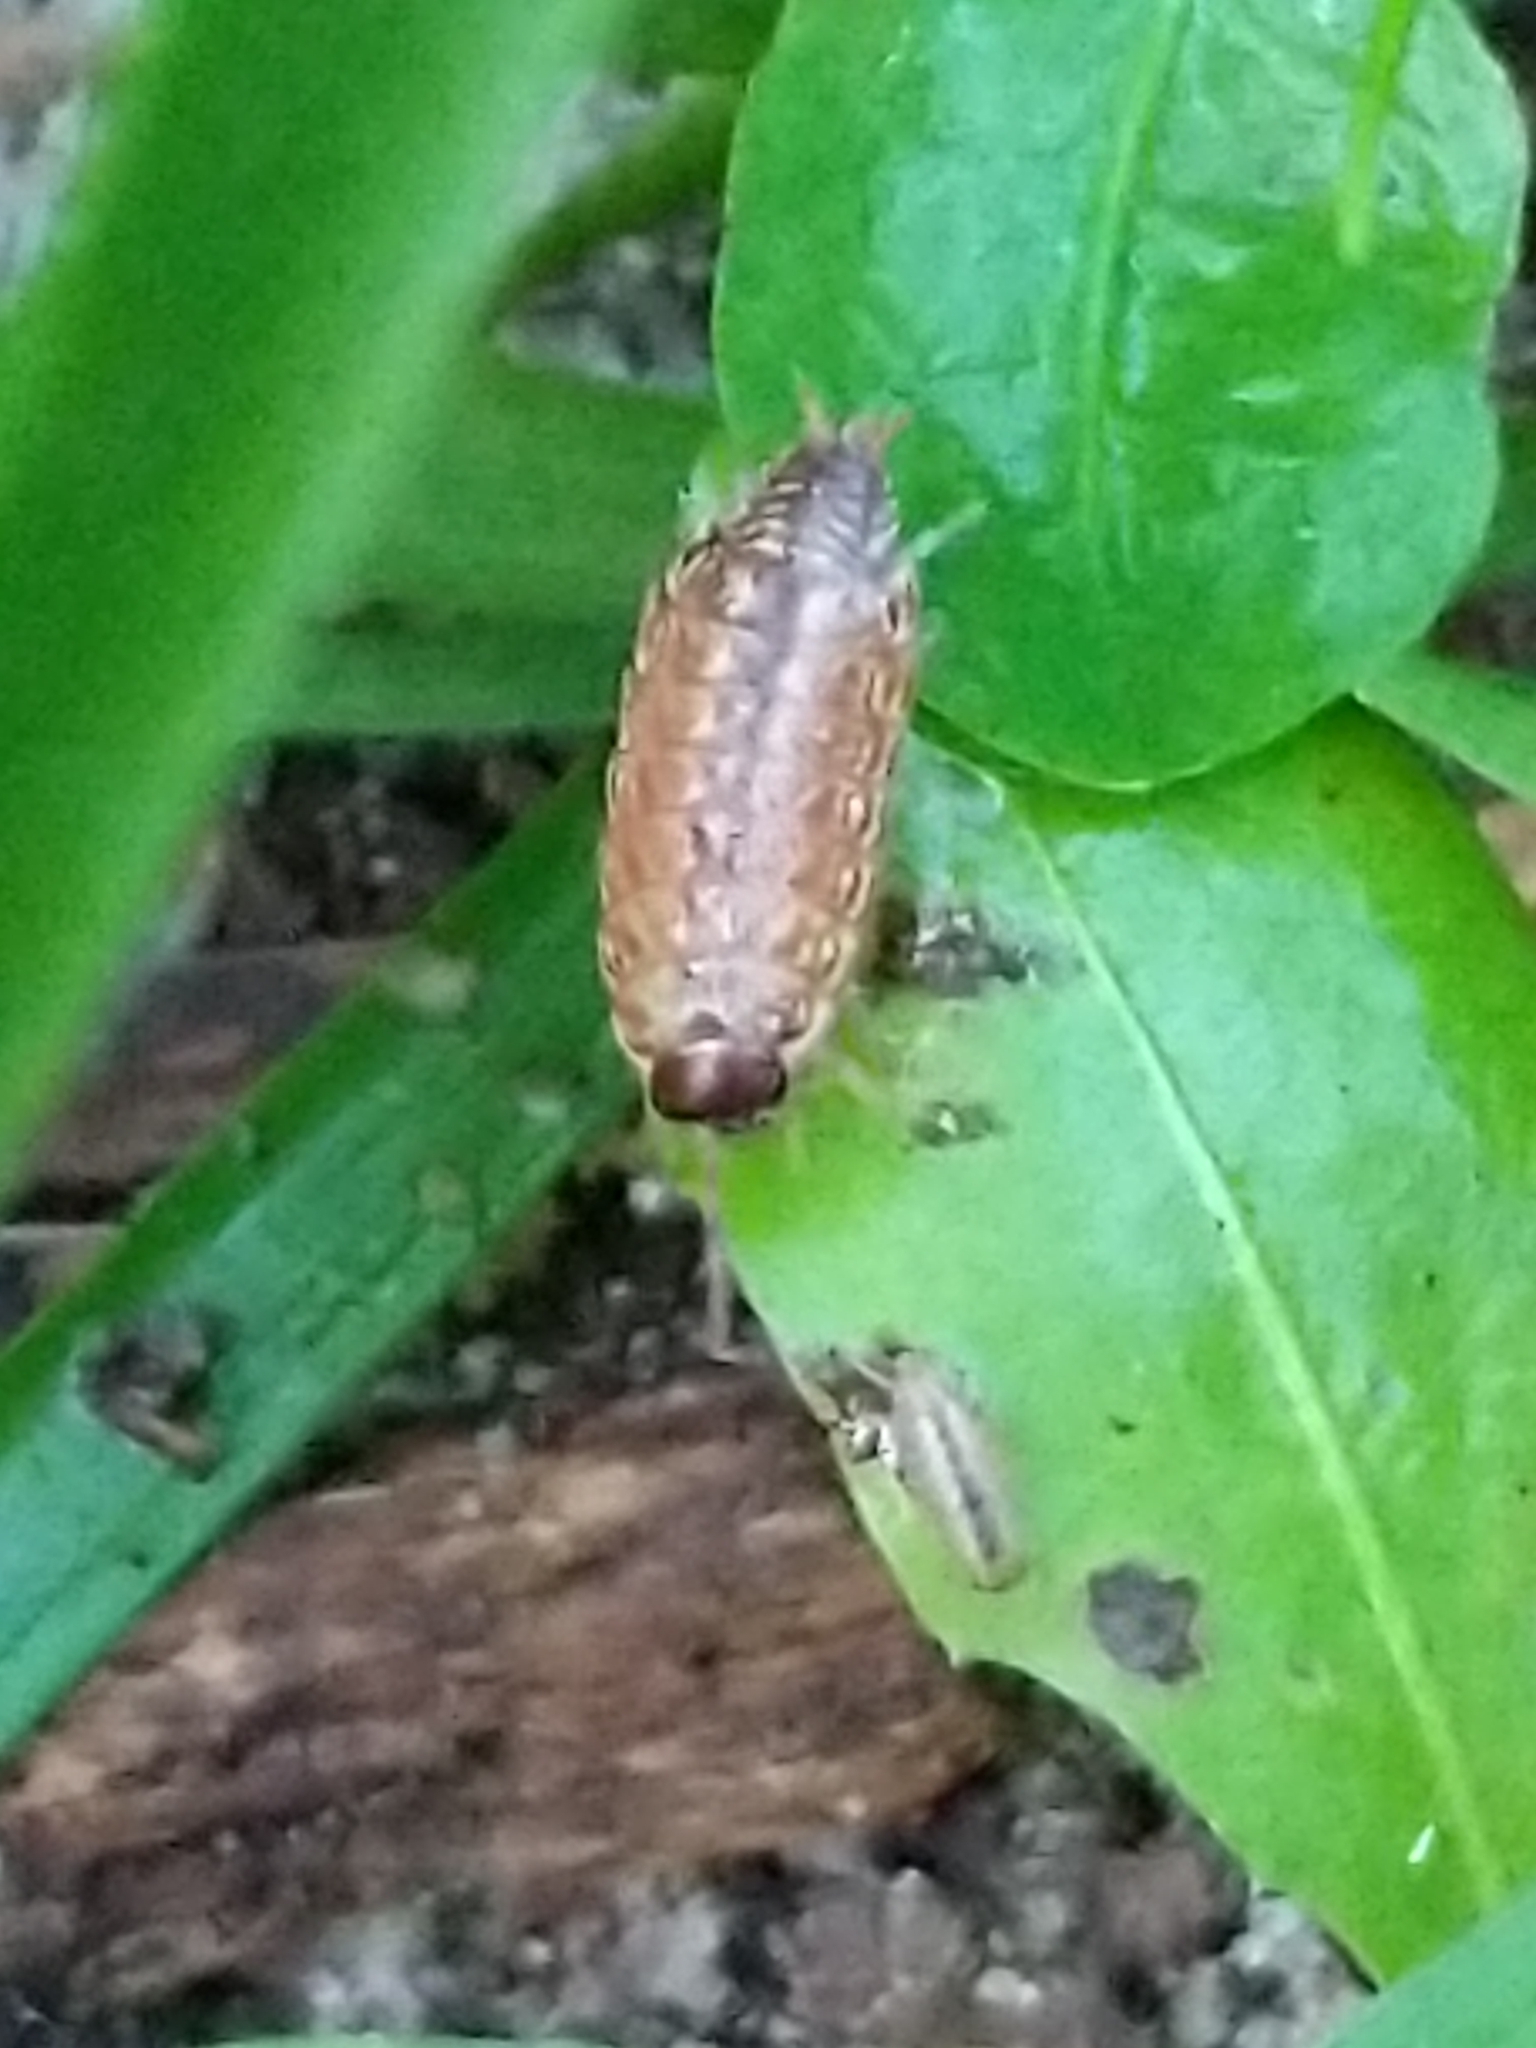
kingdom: Animalia
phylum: Arthropoda
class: Malacostraca
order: Isopoda
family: Philosciidae
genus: Philoscia
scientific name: Philoscia muscorum
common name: Common striped woodlouse
